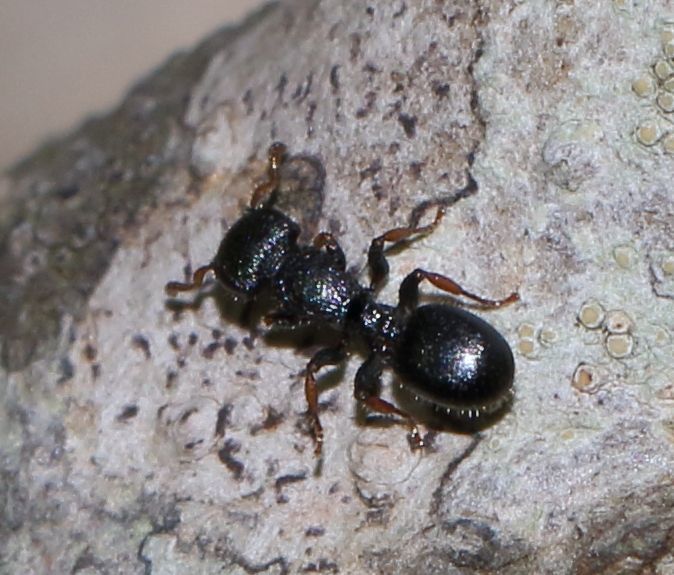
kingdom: Animalia
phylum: Arthropoda
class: Insecta
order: Hymenoptera
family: Formicidae
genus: Cataulacus
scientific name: Cataulacus intrudens
